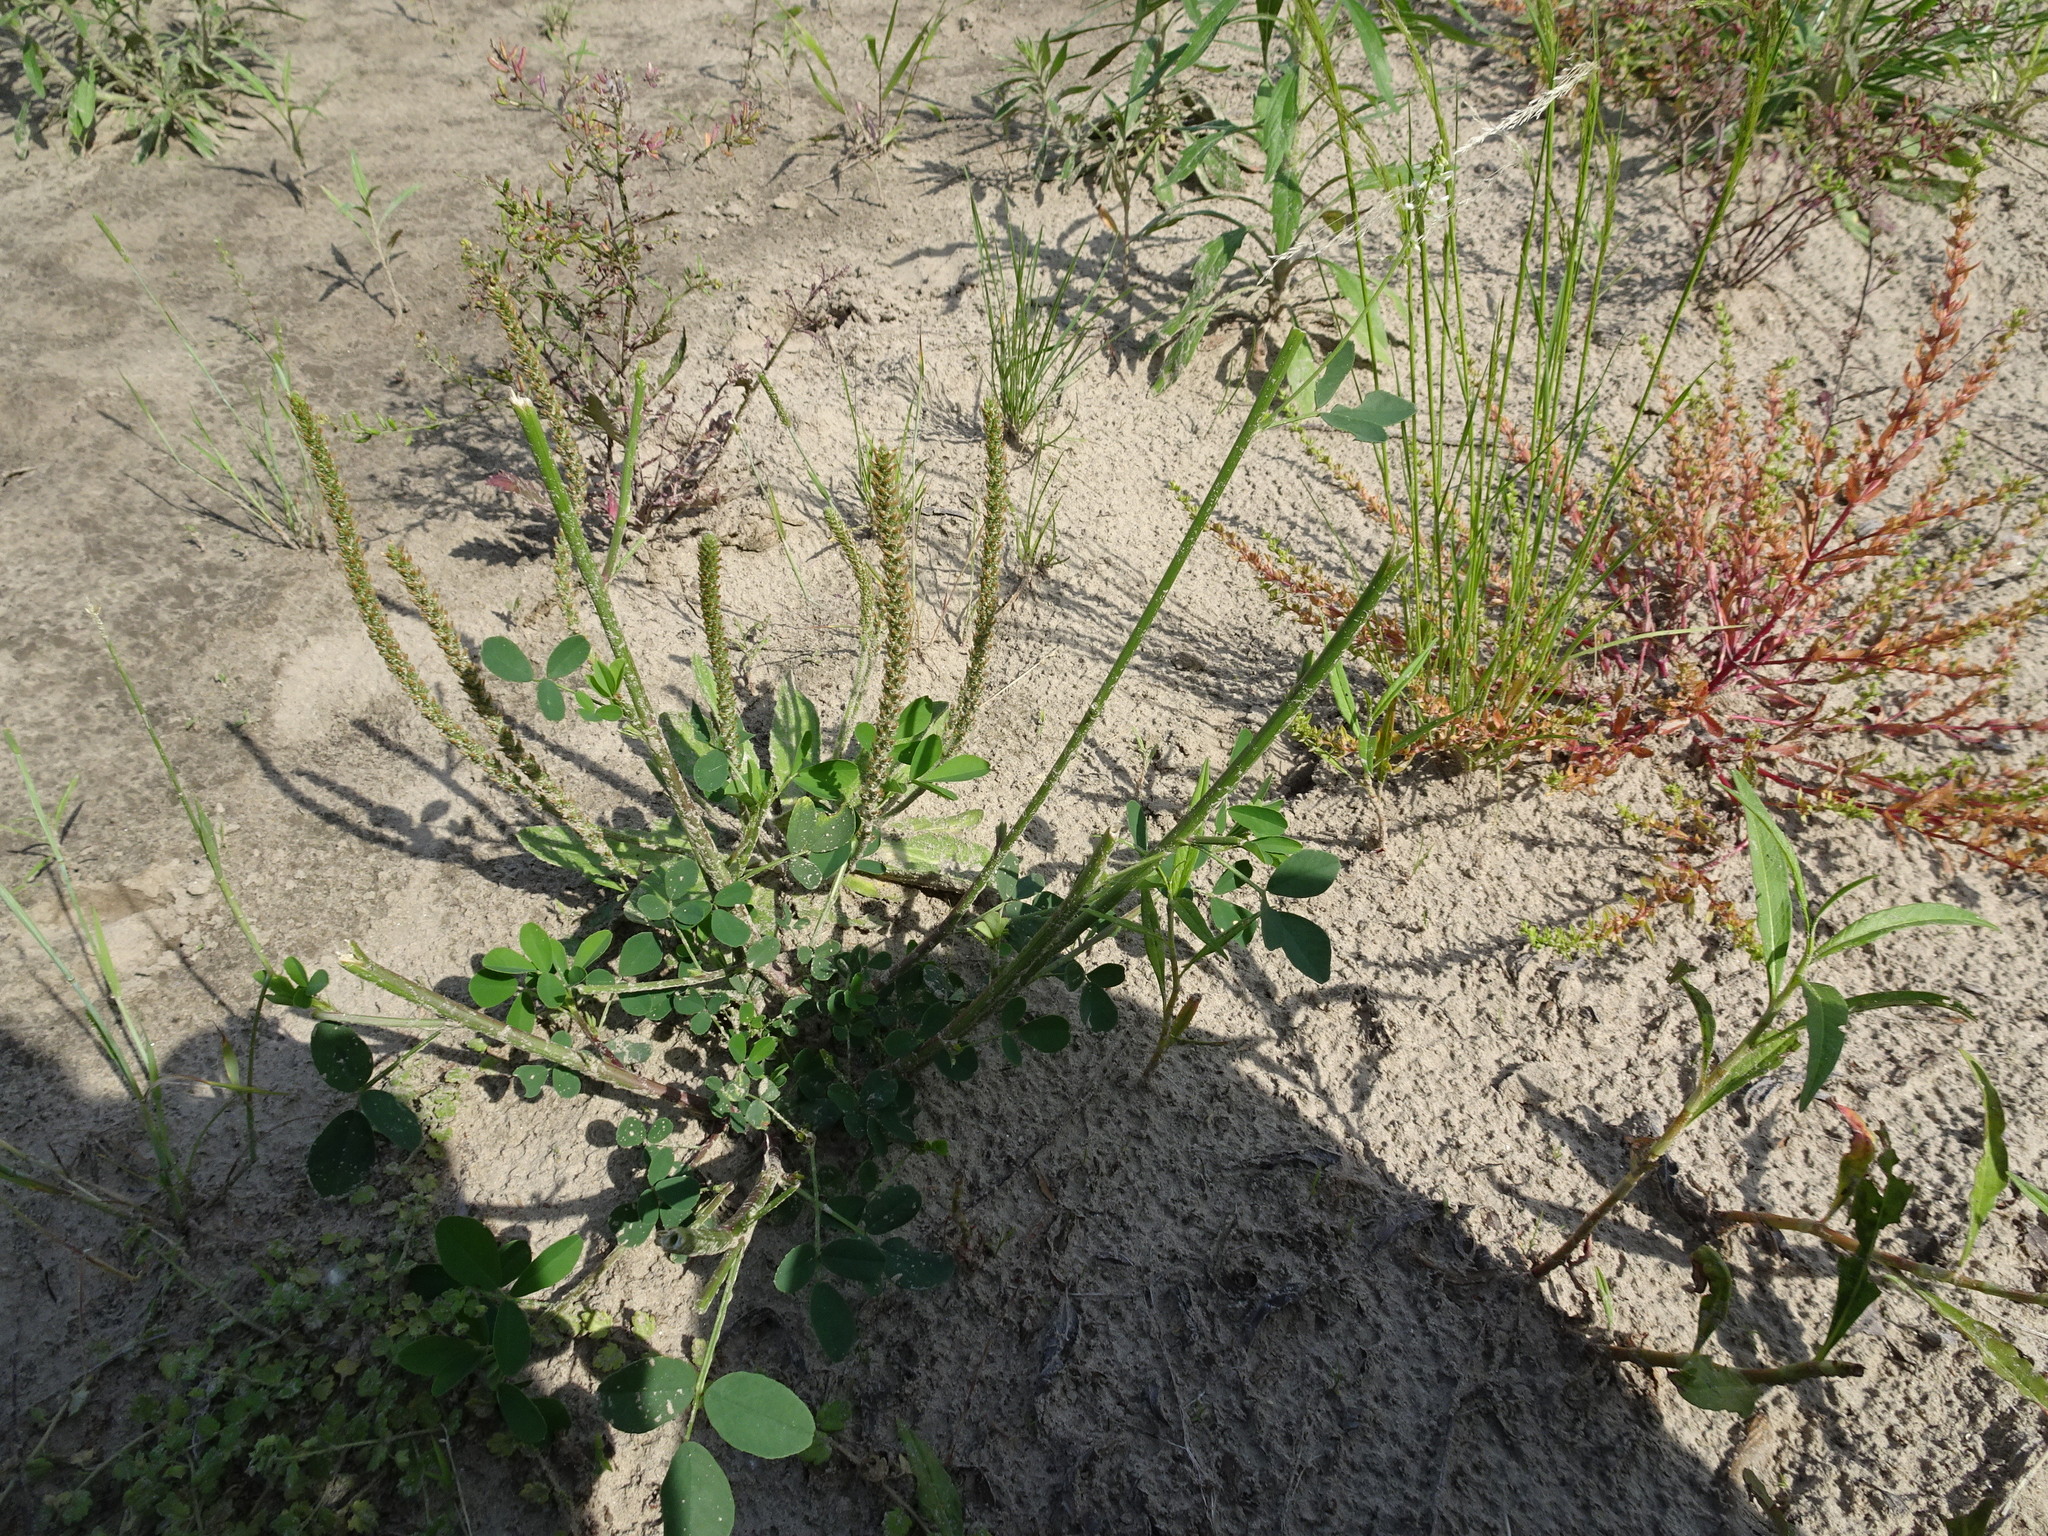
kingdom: Plantae
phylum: Tracheophyta
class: Magnoliopsida
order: Fabales
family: Fabaceae
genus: Melilotus
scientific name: Melilotus albus
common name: White melilot
